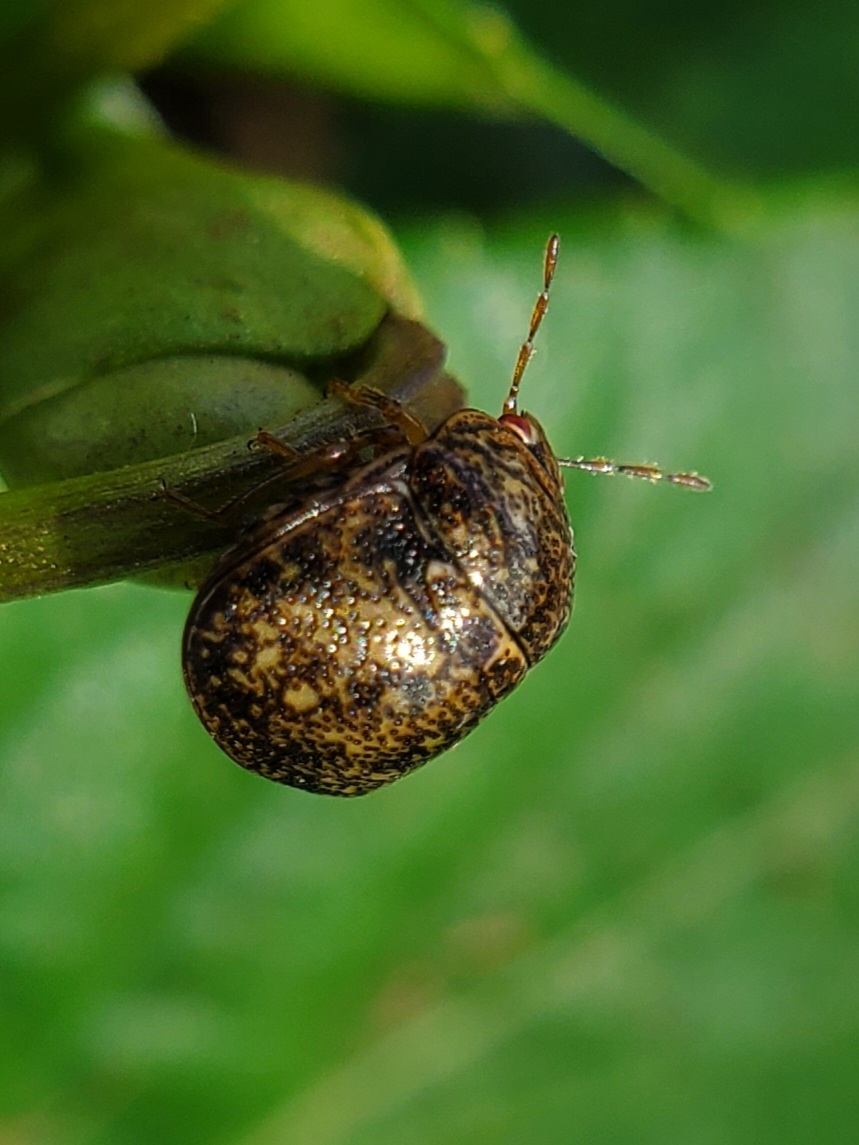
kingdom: Animalia
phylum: Arthropoda
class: Insecta
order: Hemiptera
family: Plataspidae
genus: Megacopta
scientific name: Megacopta cribraria
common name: Bean plataspid
